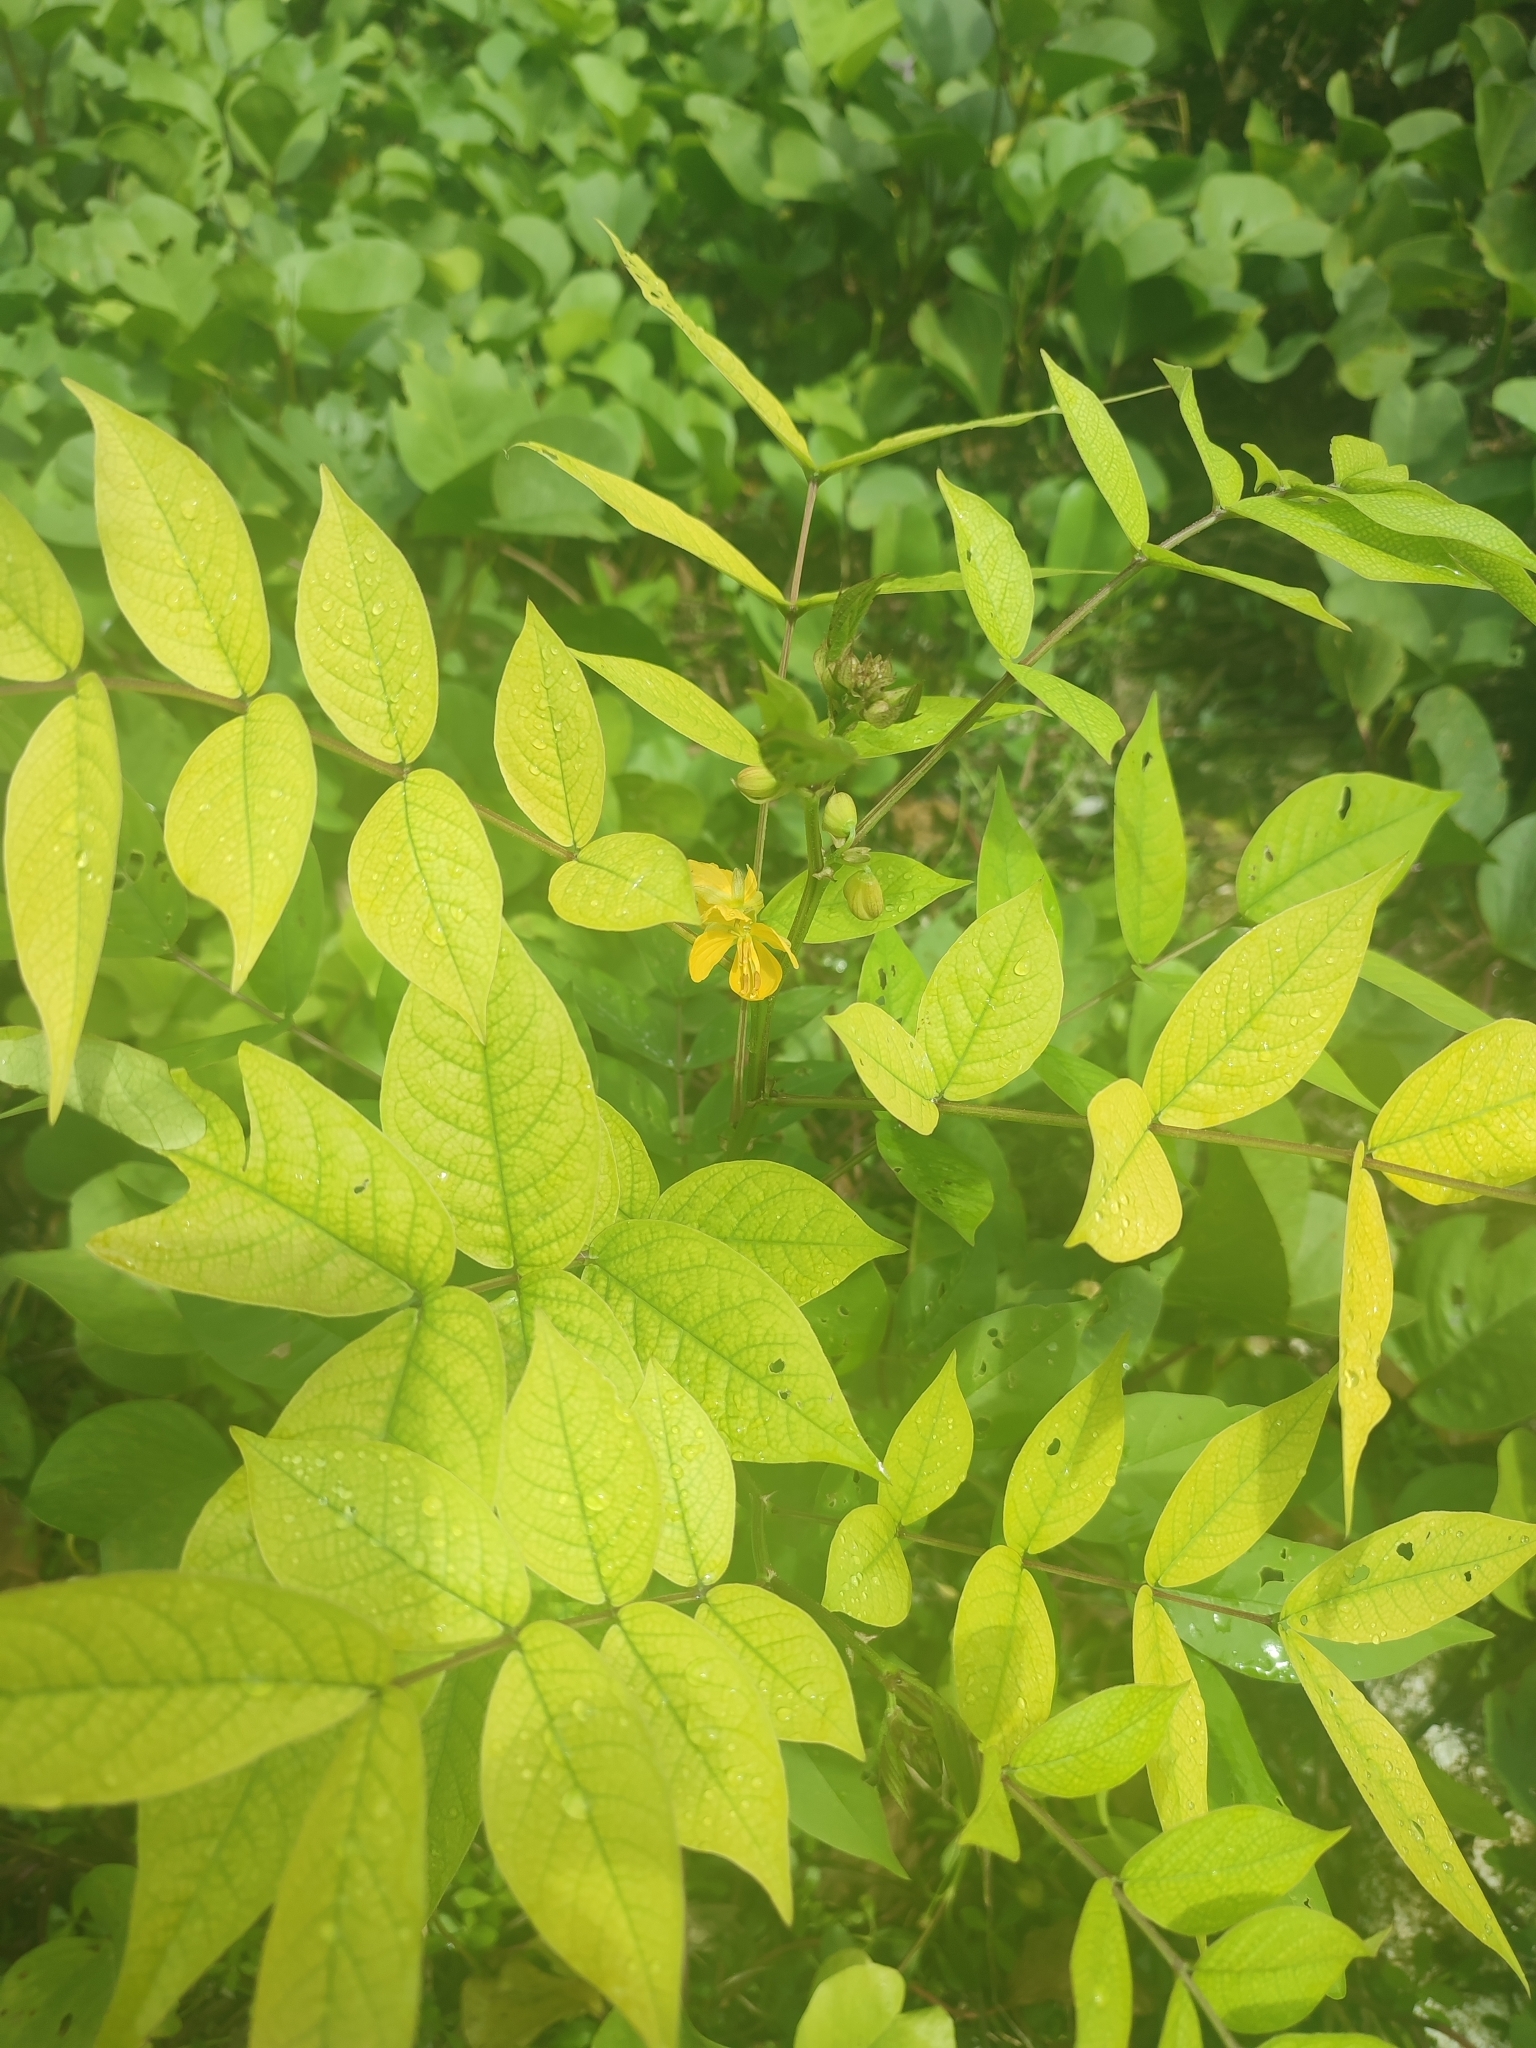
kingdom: Plantae
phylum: Tracheophyta
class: Magnoliopsida
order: Fabales
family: Fabaceae
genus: Senna
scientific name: Senna occidentalis
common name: Septicweed
